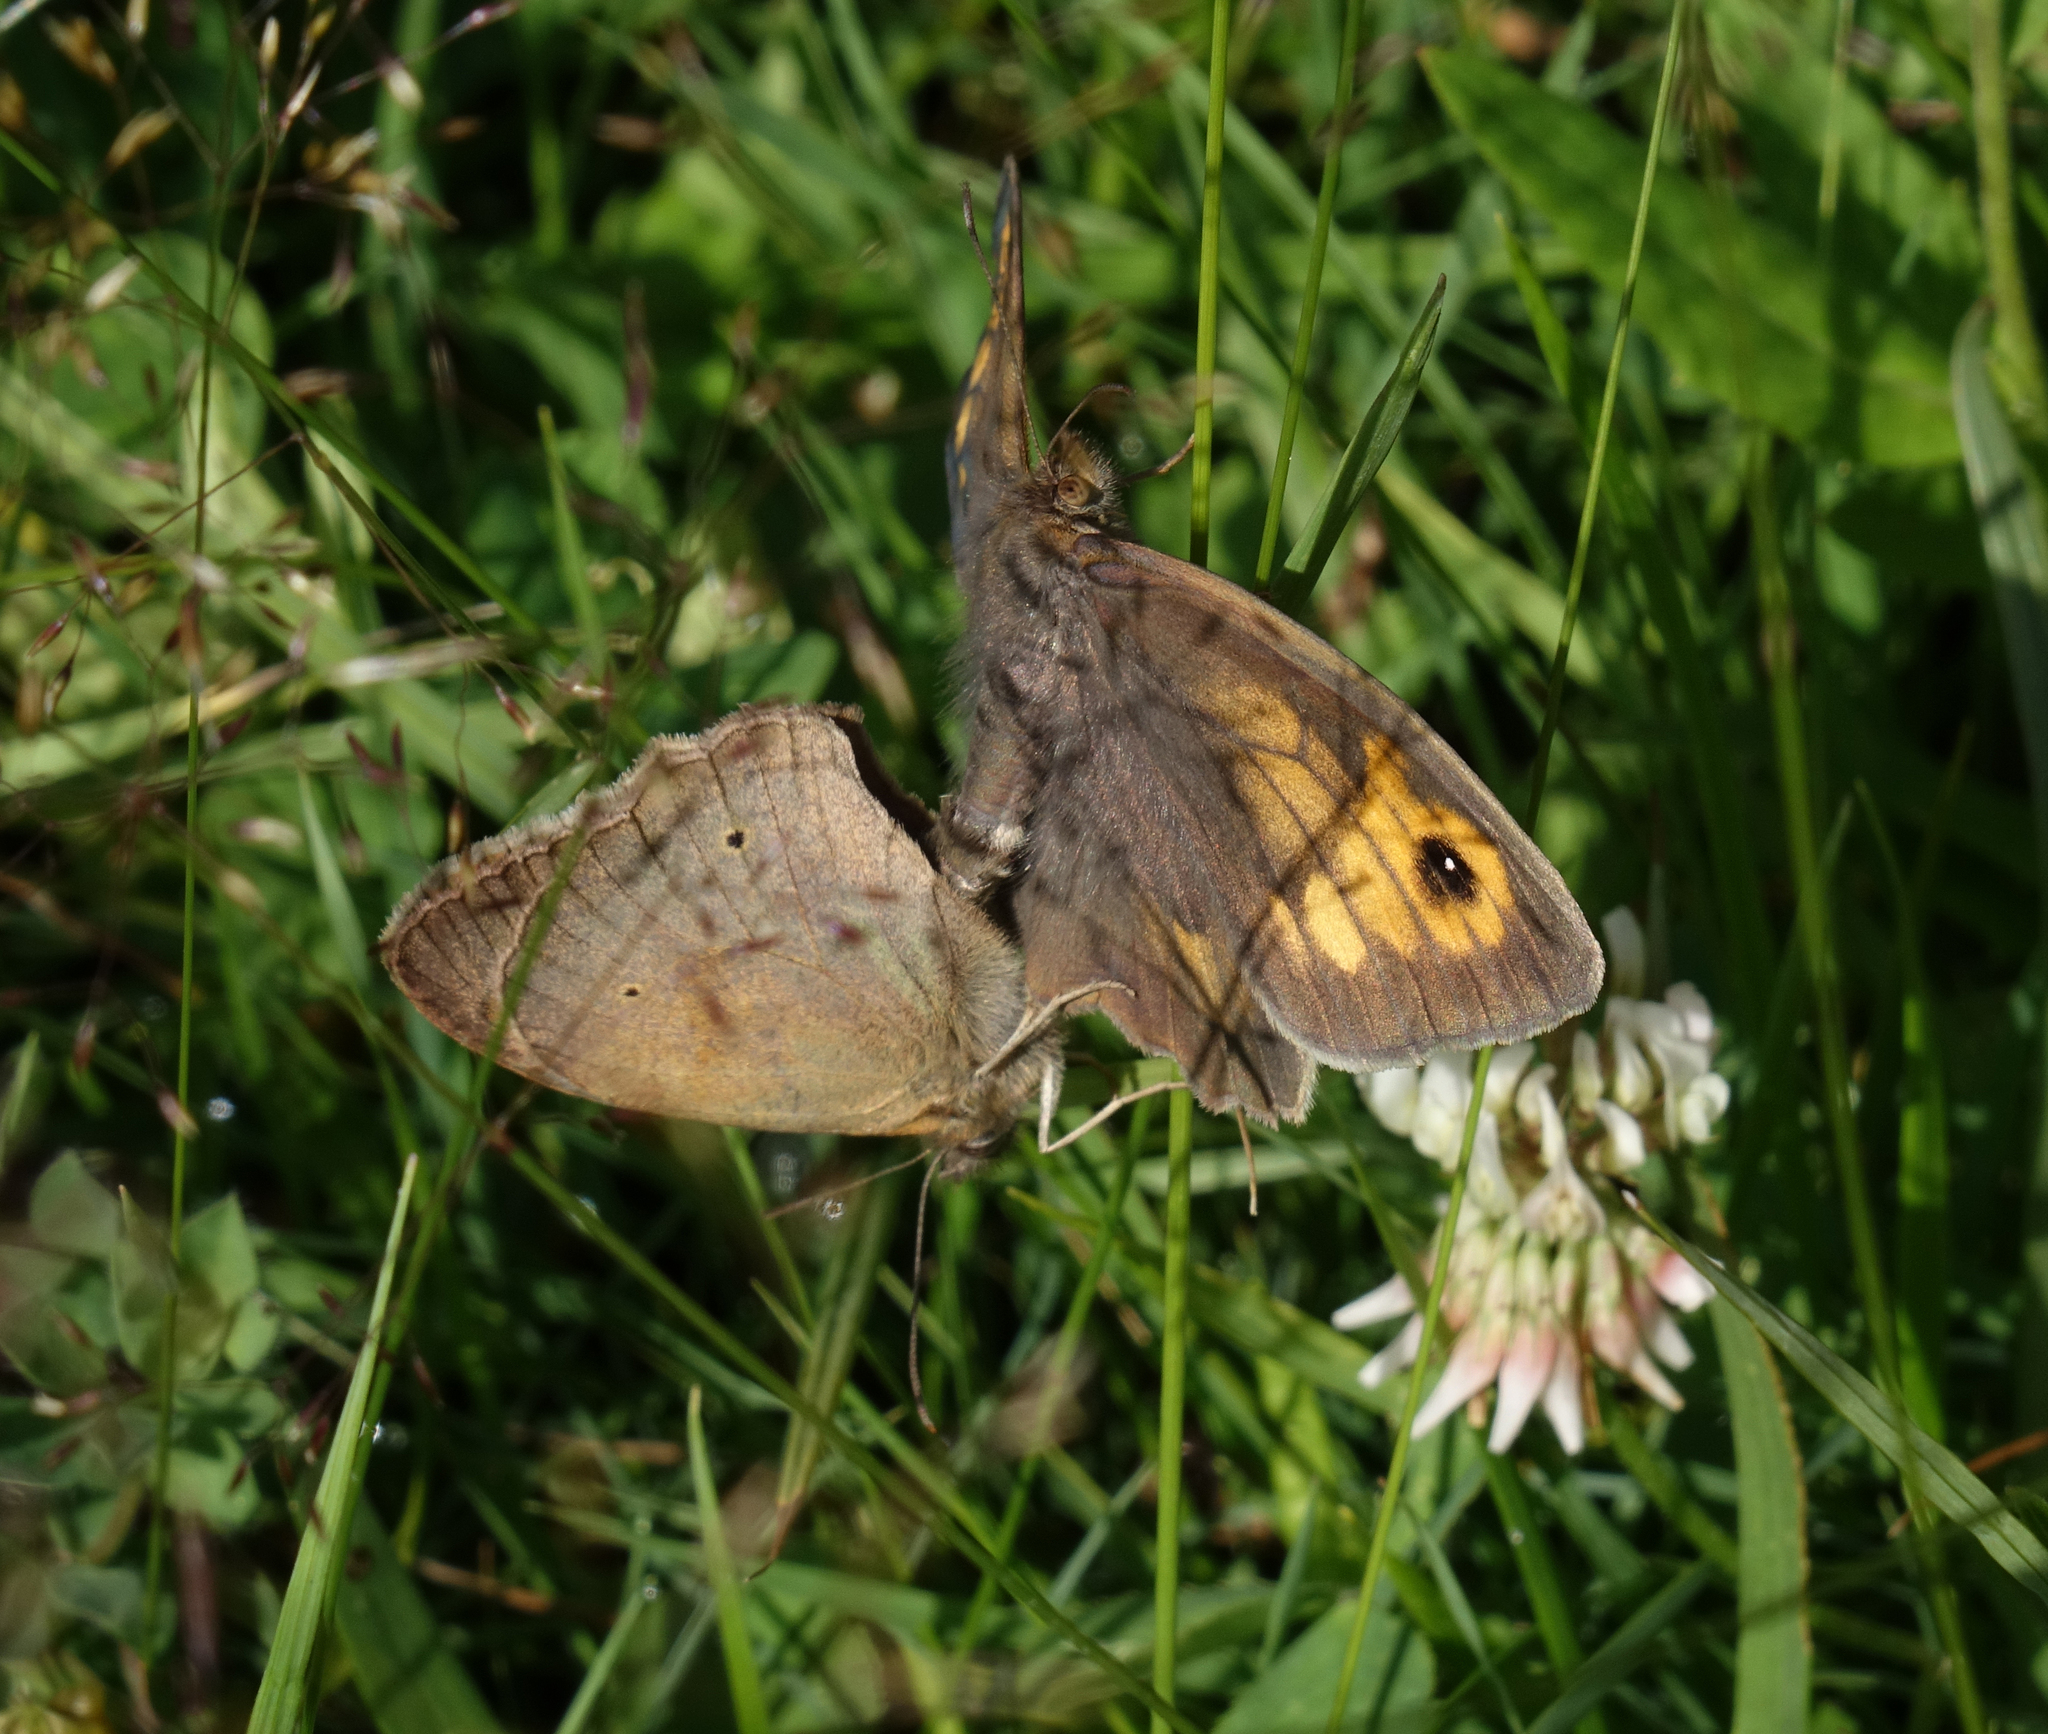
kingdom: Animalia
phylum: Arthropoda
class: Insecta
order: Lepidoptera
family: Nymphalidae
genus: Maniola
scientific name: Maniola jurtina
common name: Meadow brown
